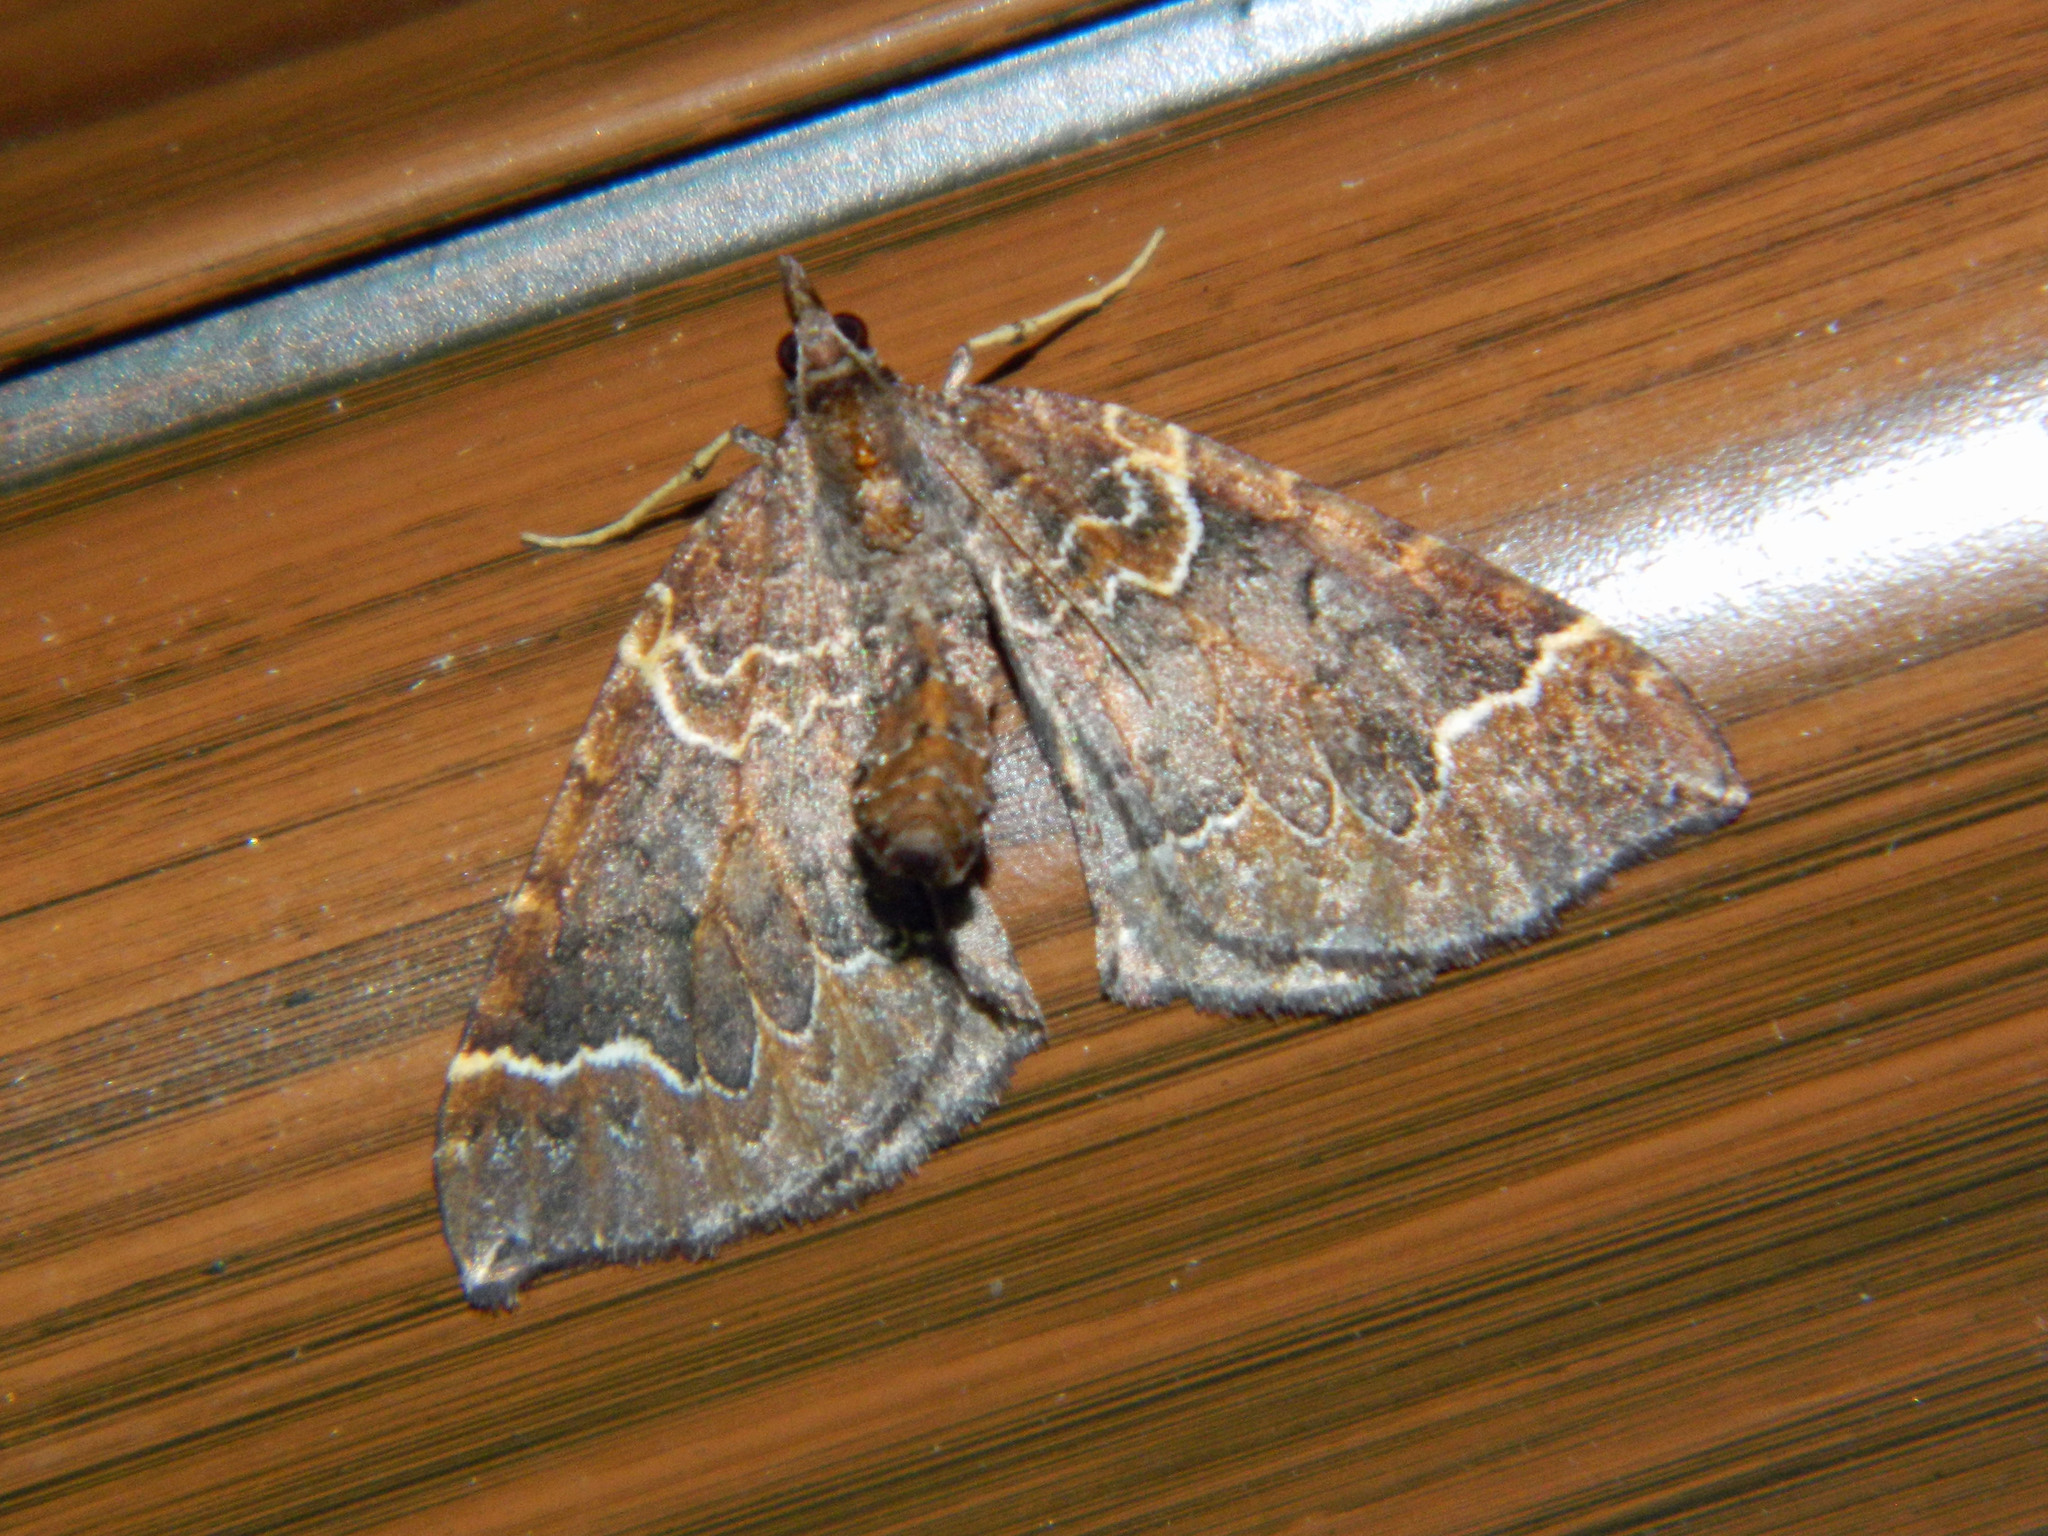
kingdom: Animalia
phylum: Arthropoda
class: Insecta
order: Lepidoptera
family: Geometridae
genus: Eulithis
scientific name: Eulithis flavibrunneata
